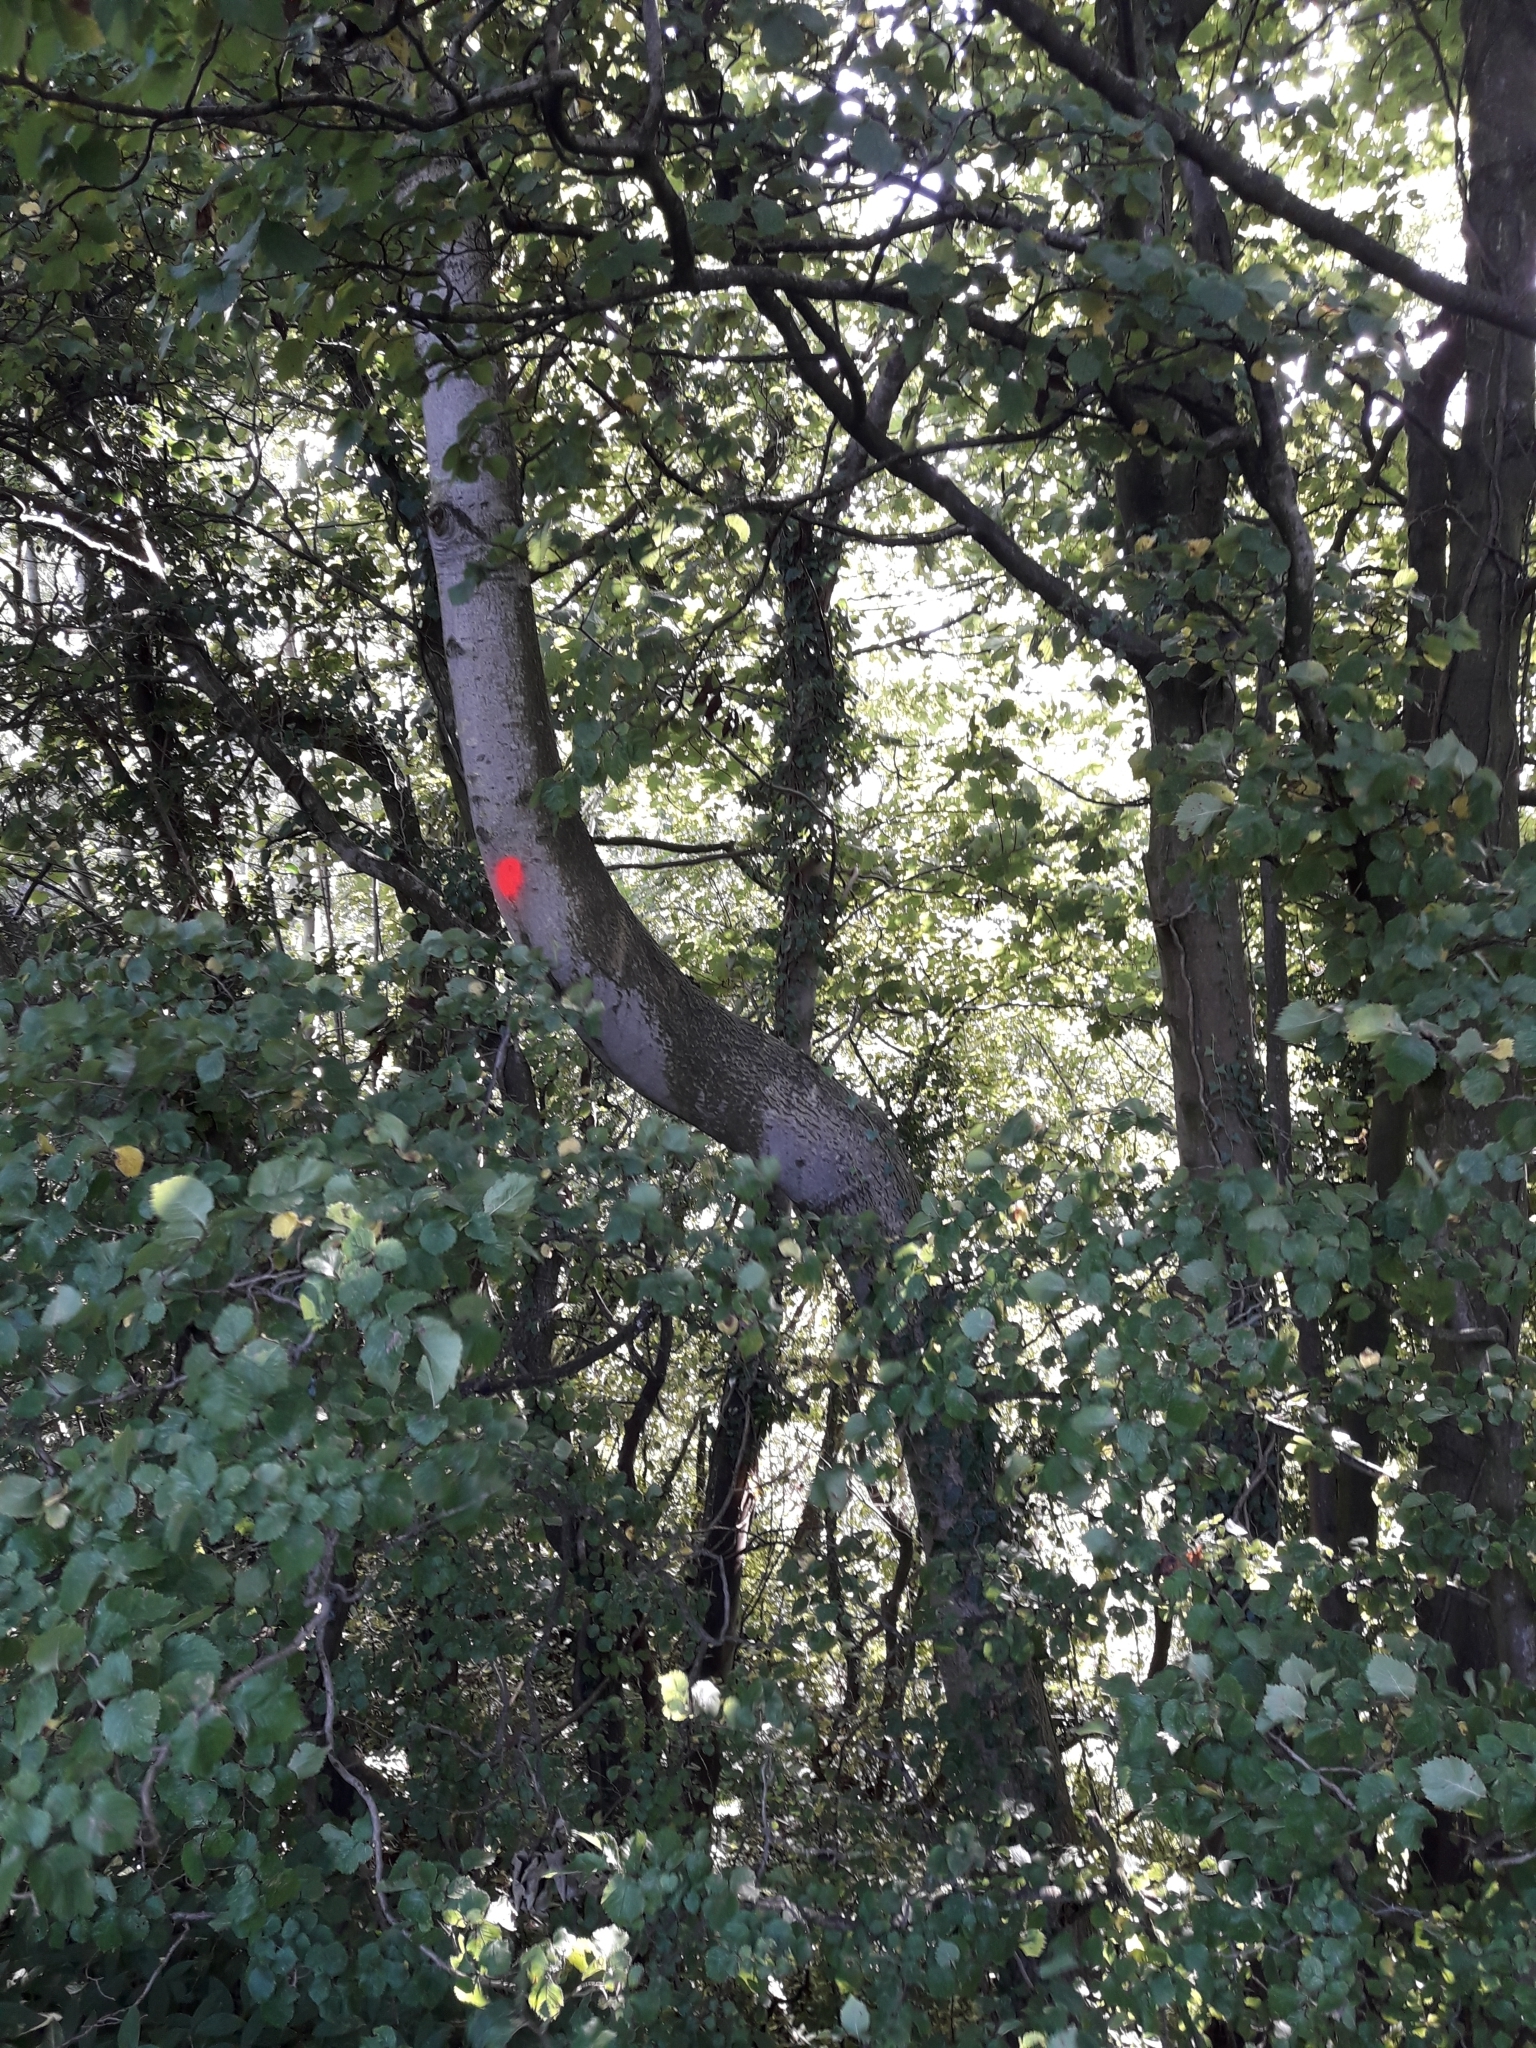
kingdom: Plantae
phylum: Tracheophyta
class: Magnoliopsida
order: Lamiales
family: Oleaceae
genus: Fraxinus
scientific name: Fraxinus excelsior
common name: European ash
